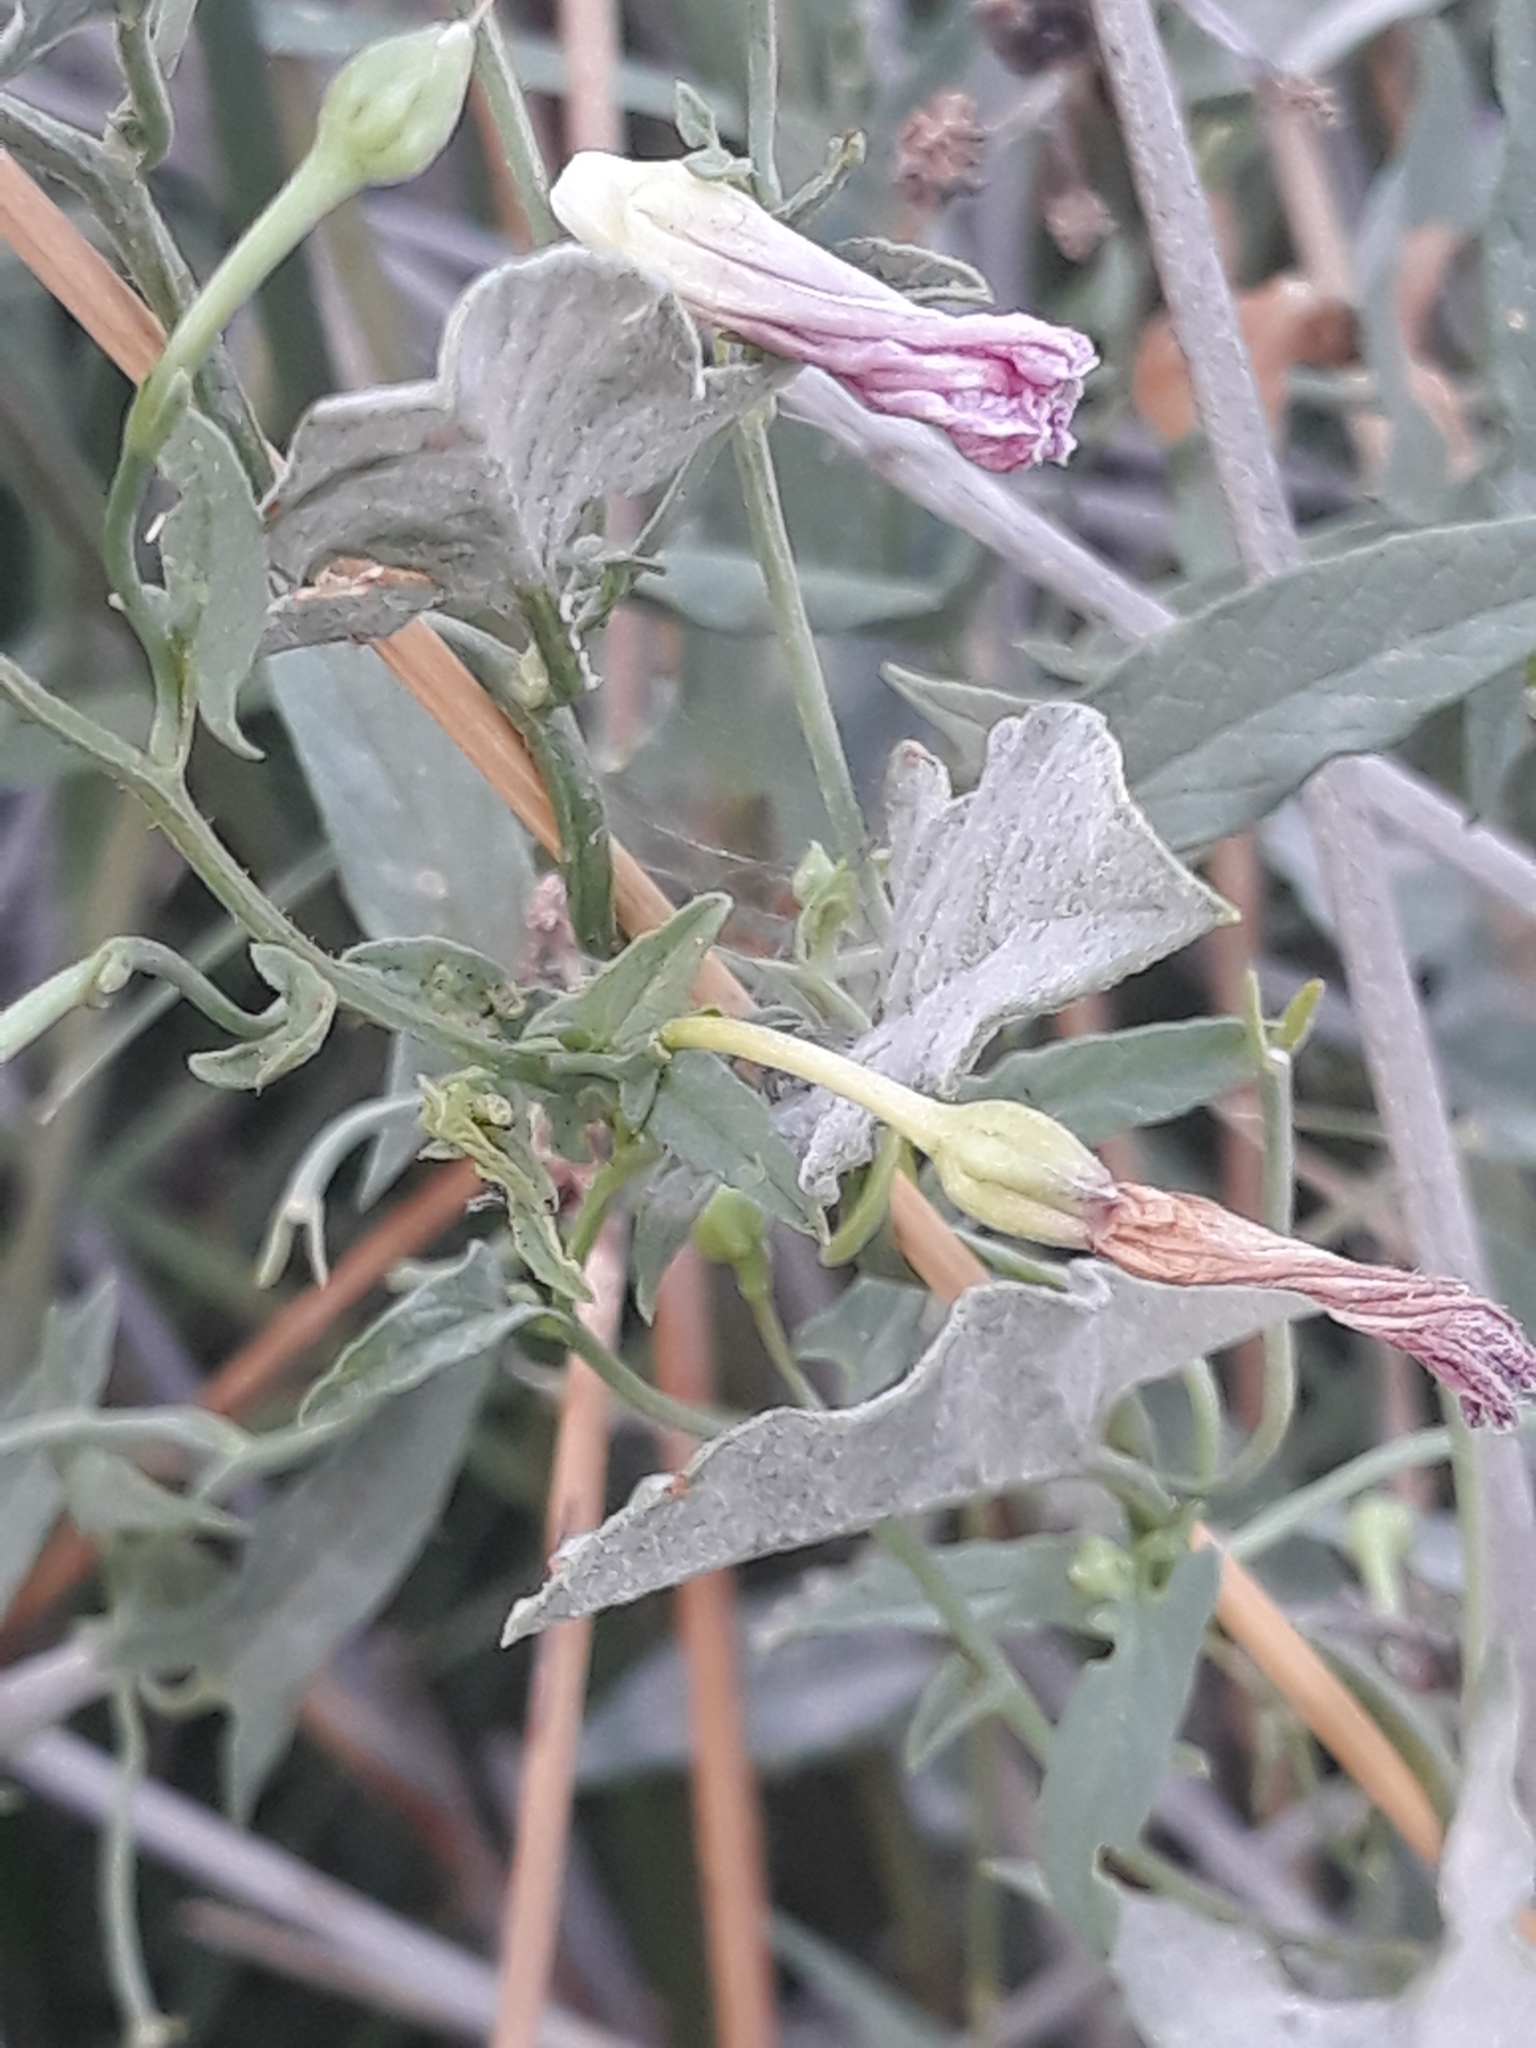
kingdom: Plantae
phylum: Tracheophyta
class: Magnoliopsida
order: Solanales
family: Convolvulaceae
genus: Convolvulus
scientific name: Convolvulus arvensis
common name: Field bindweed
